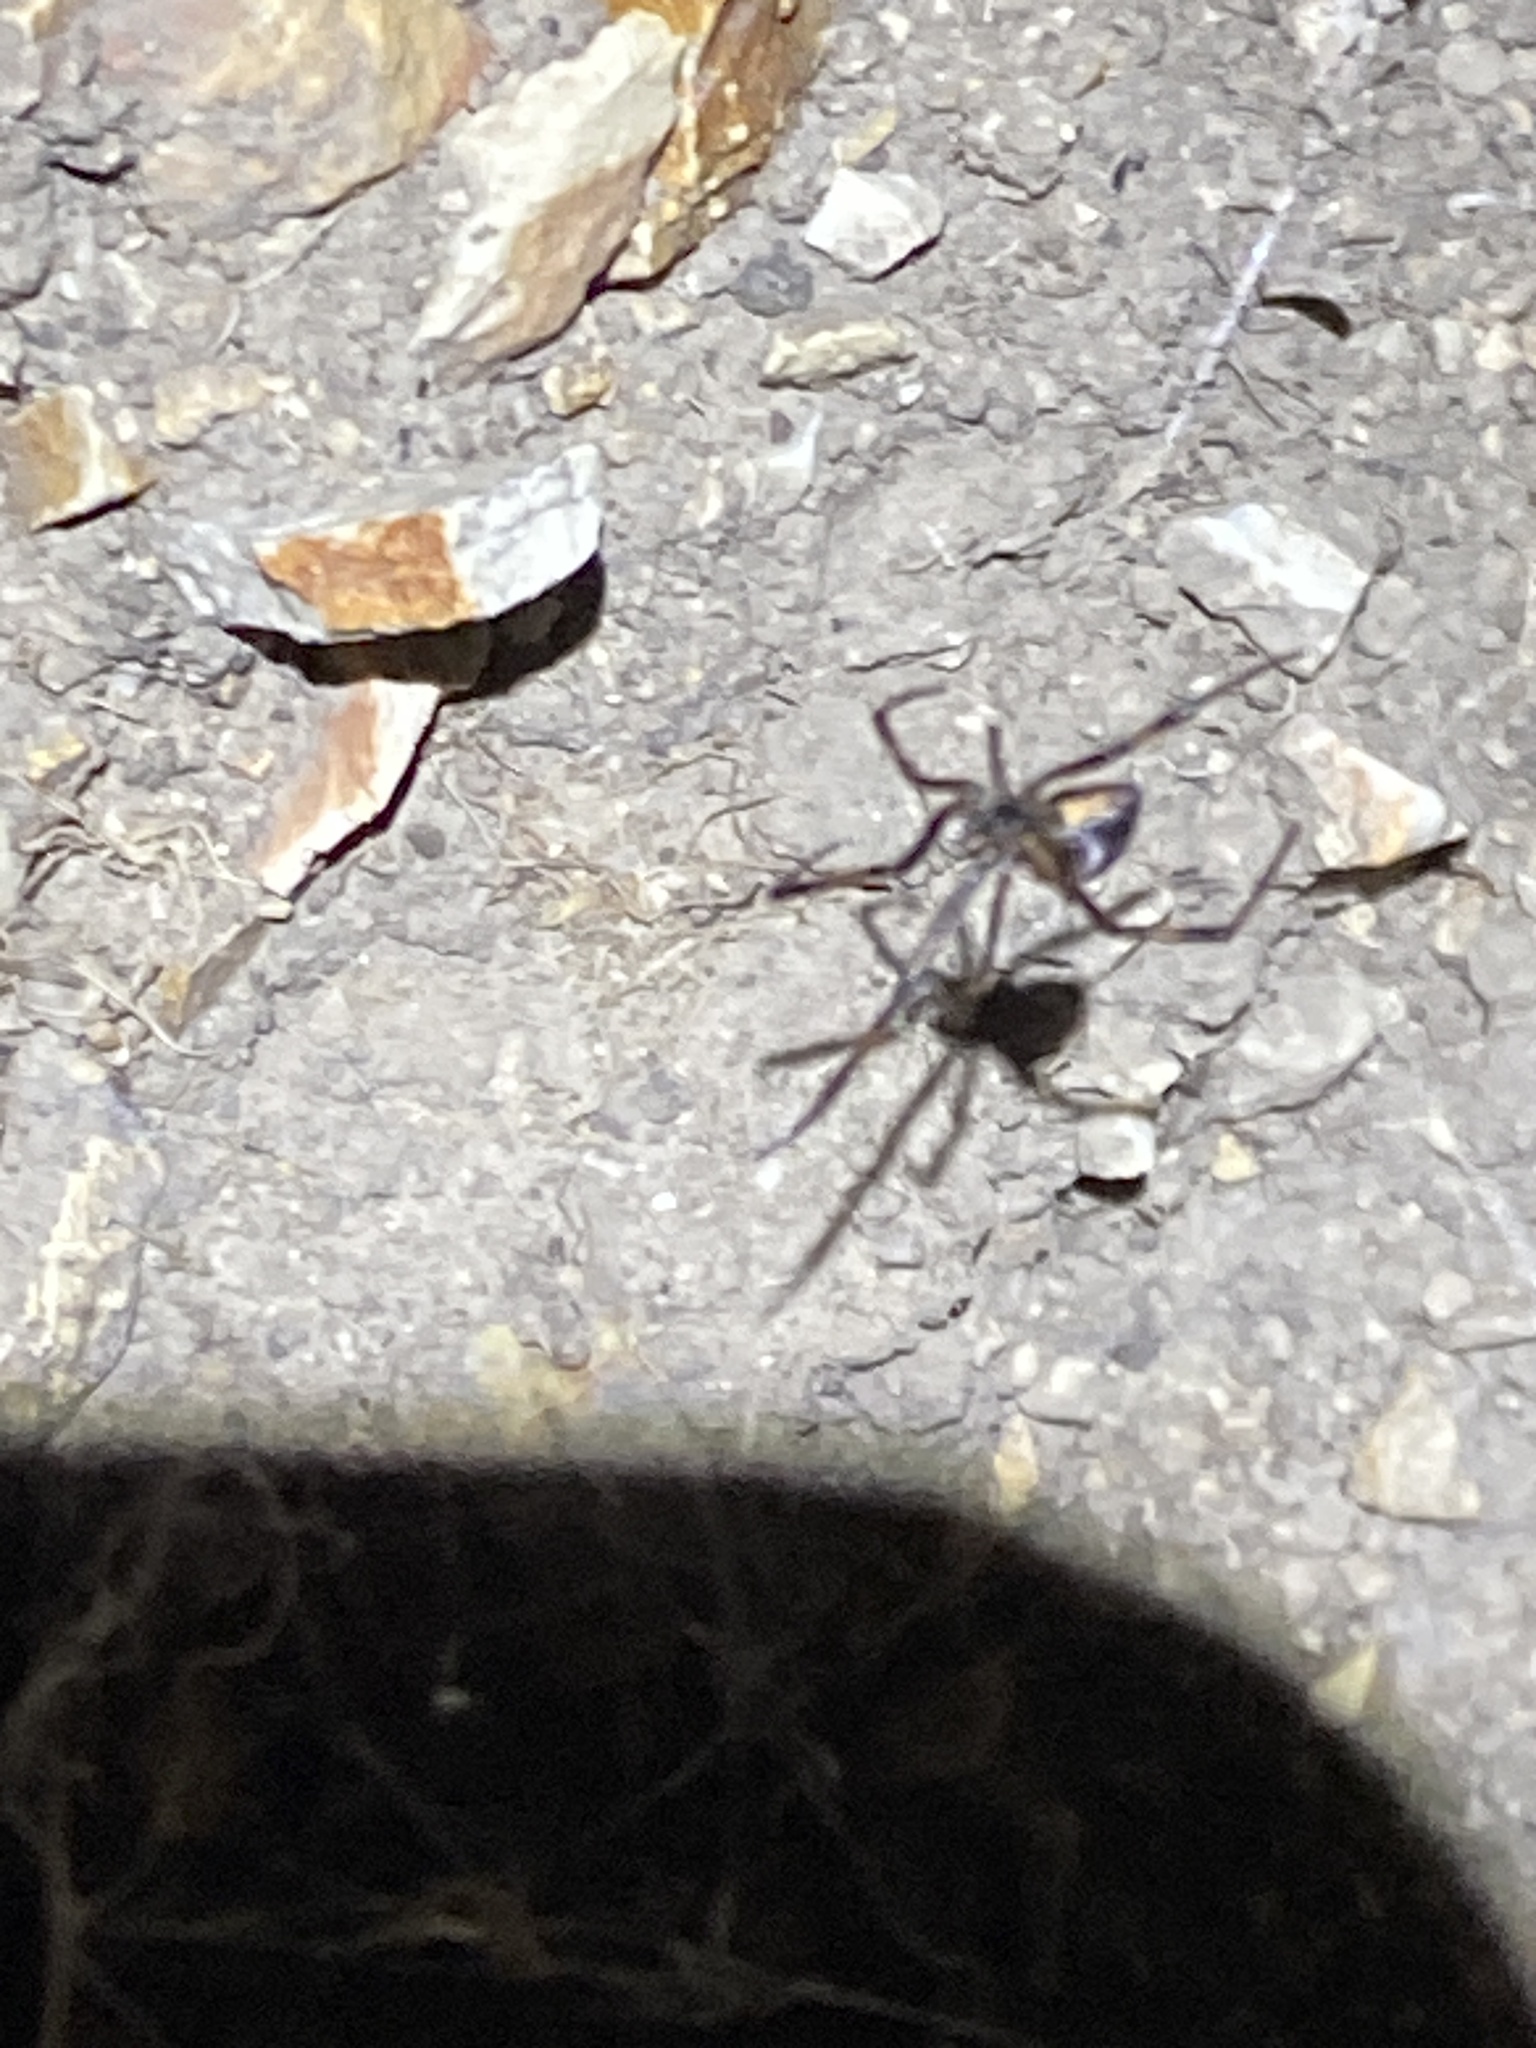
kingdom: Animalia
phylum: Arthropoda
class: Arachnida
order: Araneae
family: Theridiidae
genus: Latrodectus
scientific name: Latrodectus hesperus
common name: Western black widow
